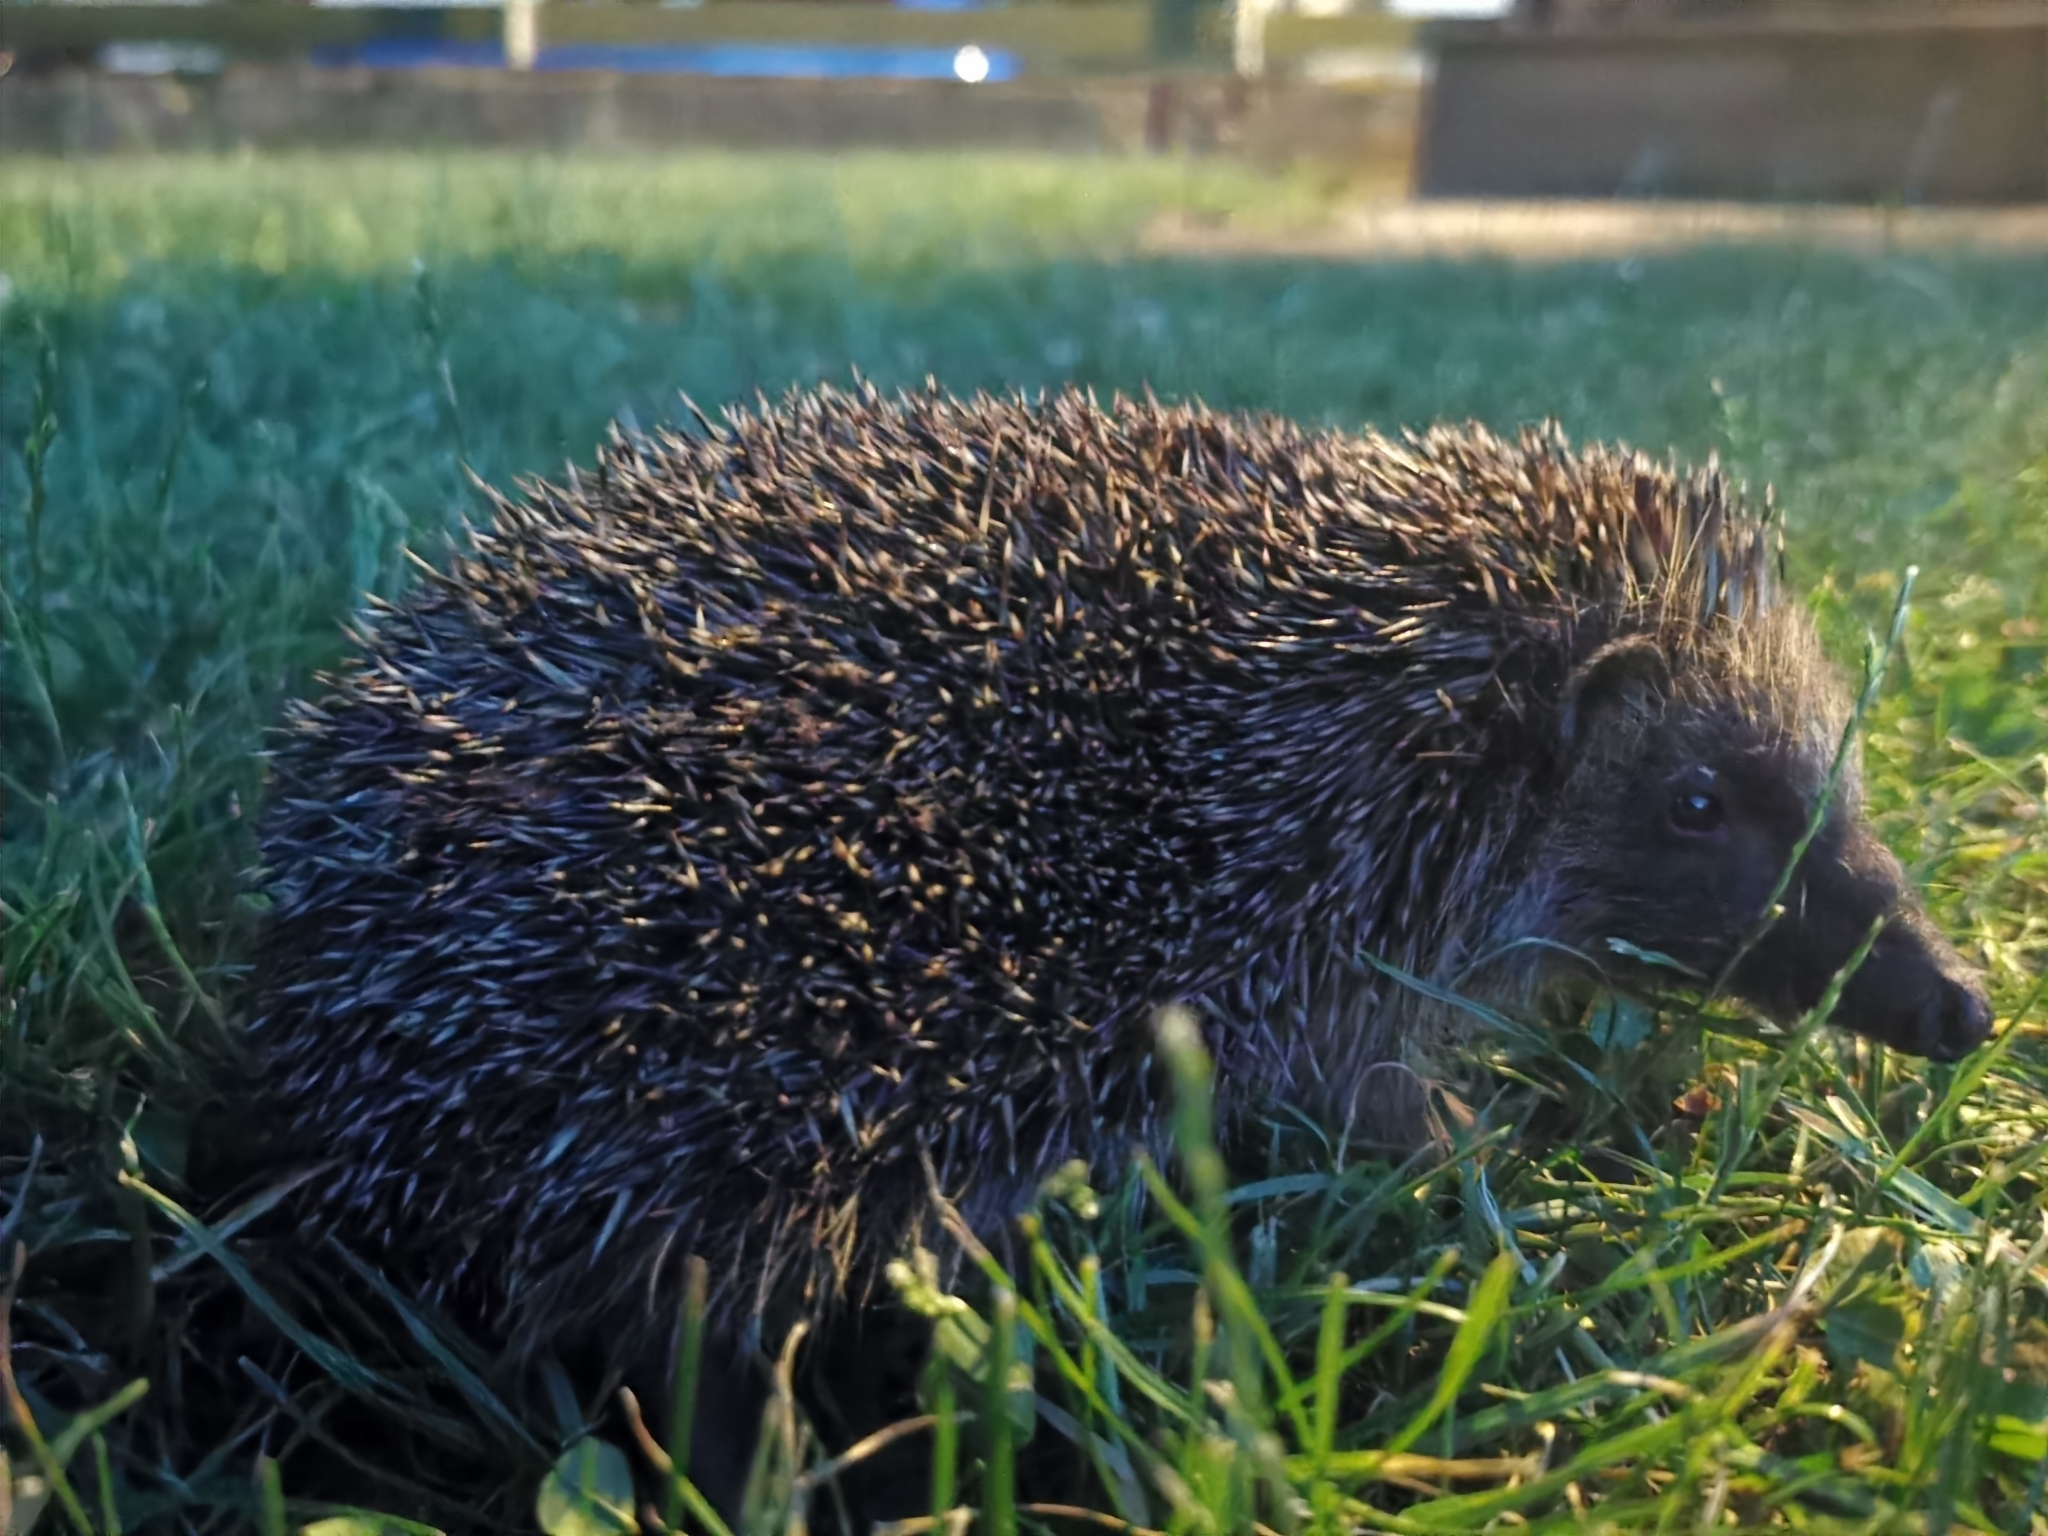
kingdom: Animalia
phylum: Chordata
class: Mammalia
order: Erinaceomorpha
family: Erinaceidae
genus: Erinaceus
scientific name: Erinaceus europaeus
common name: West european hedgehog
